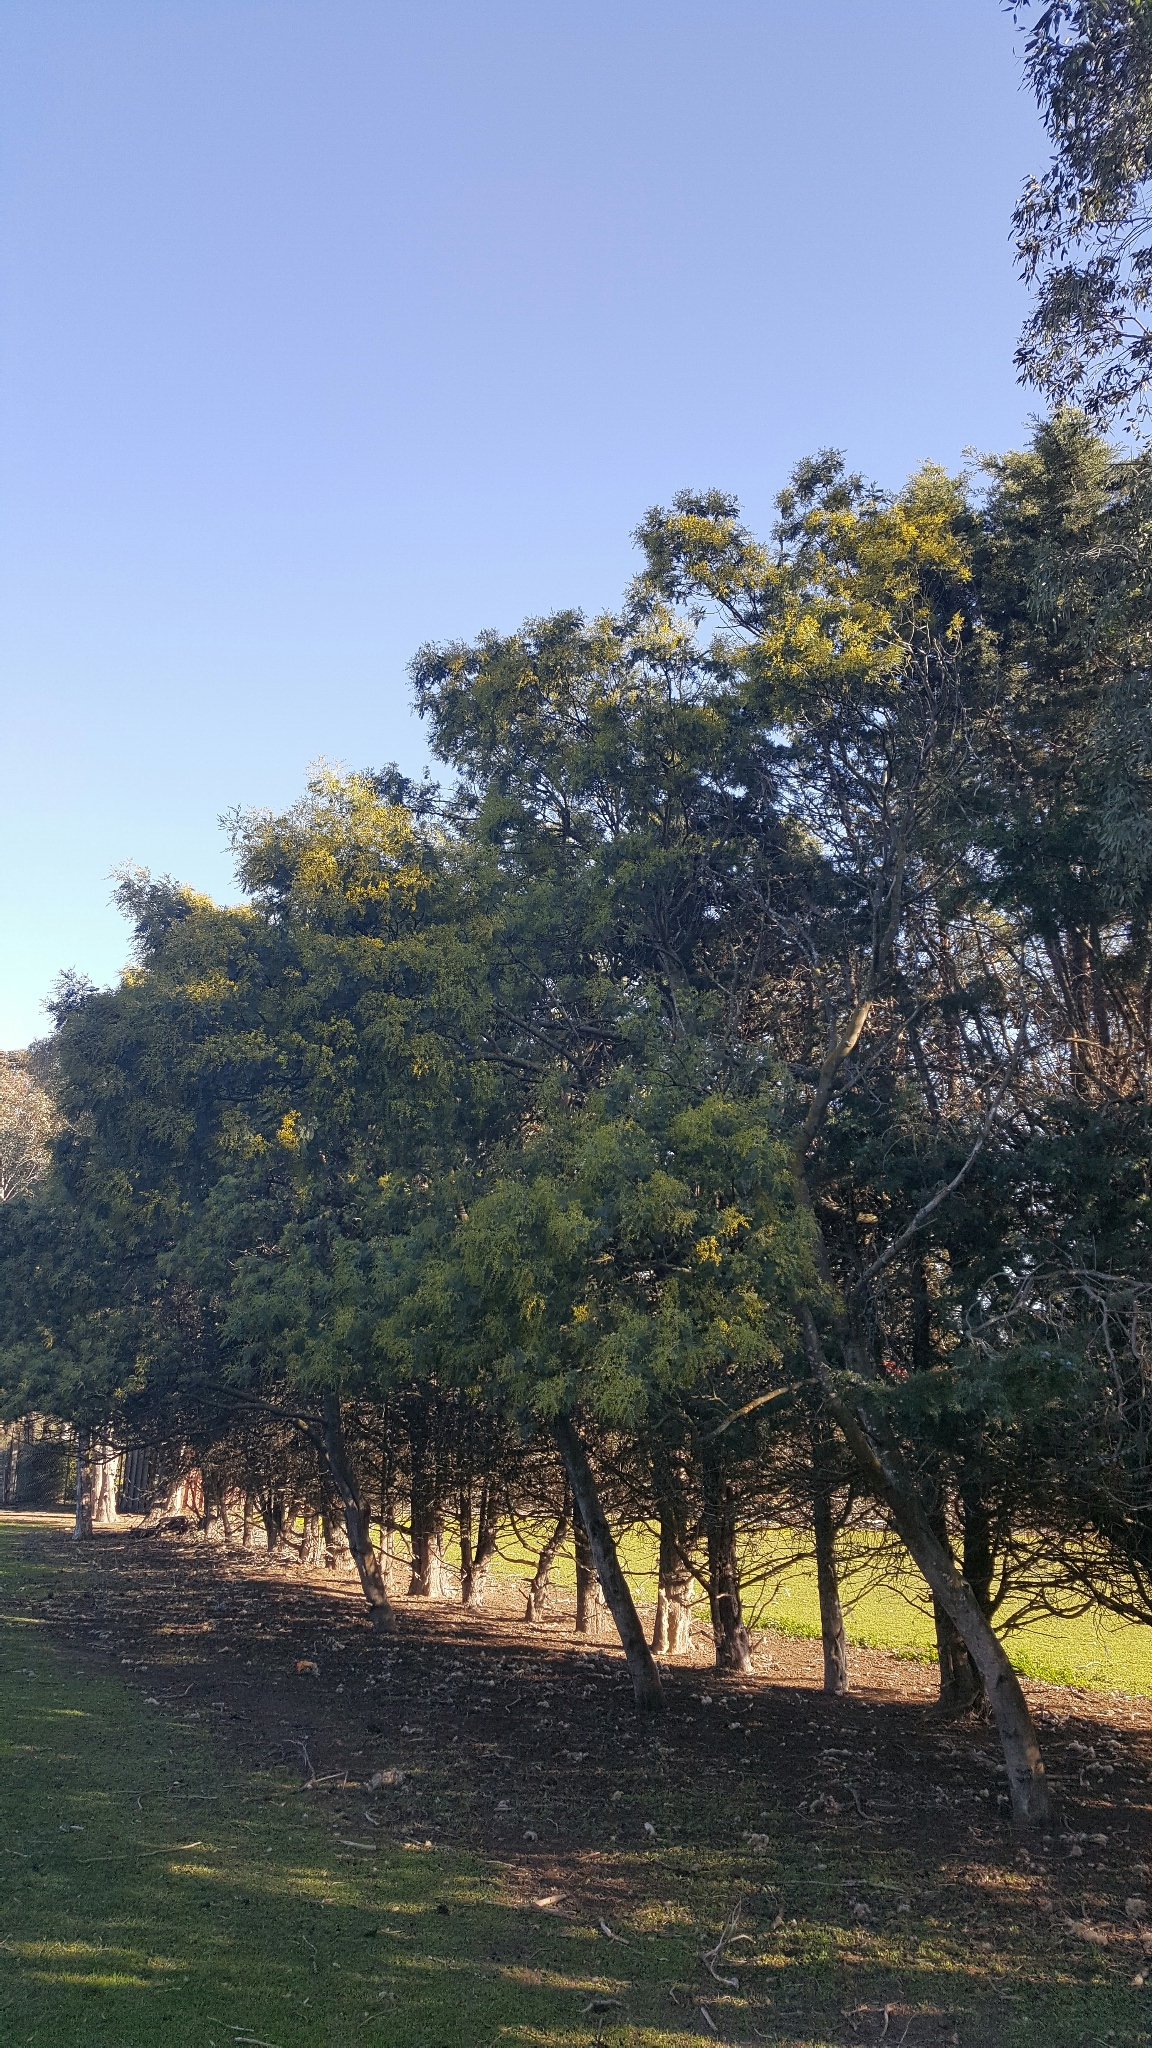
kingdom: Plantae
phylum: Tracheophyta
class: Magnoliopsida
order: Fabales
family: Fabaceae
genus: Acacia
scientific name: Acacia dealbata
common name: Silver wattle
